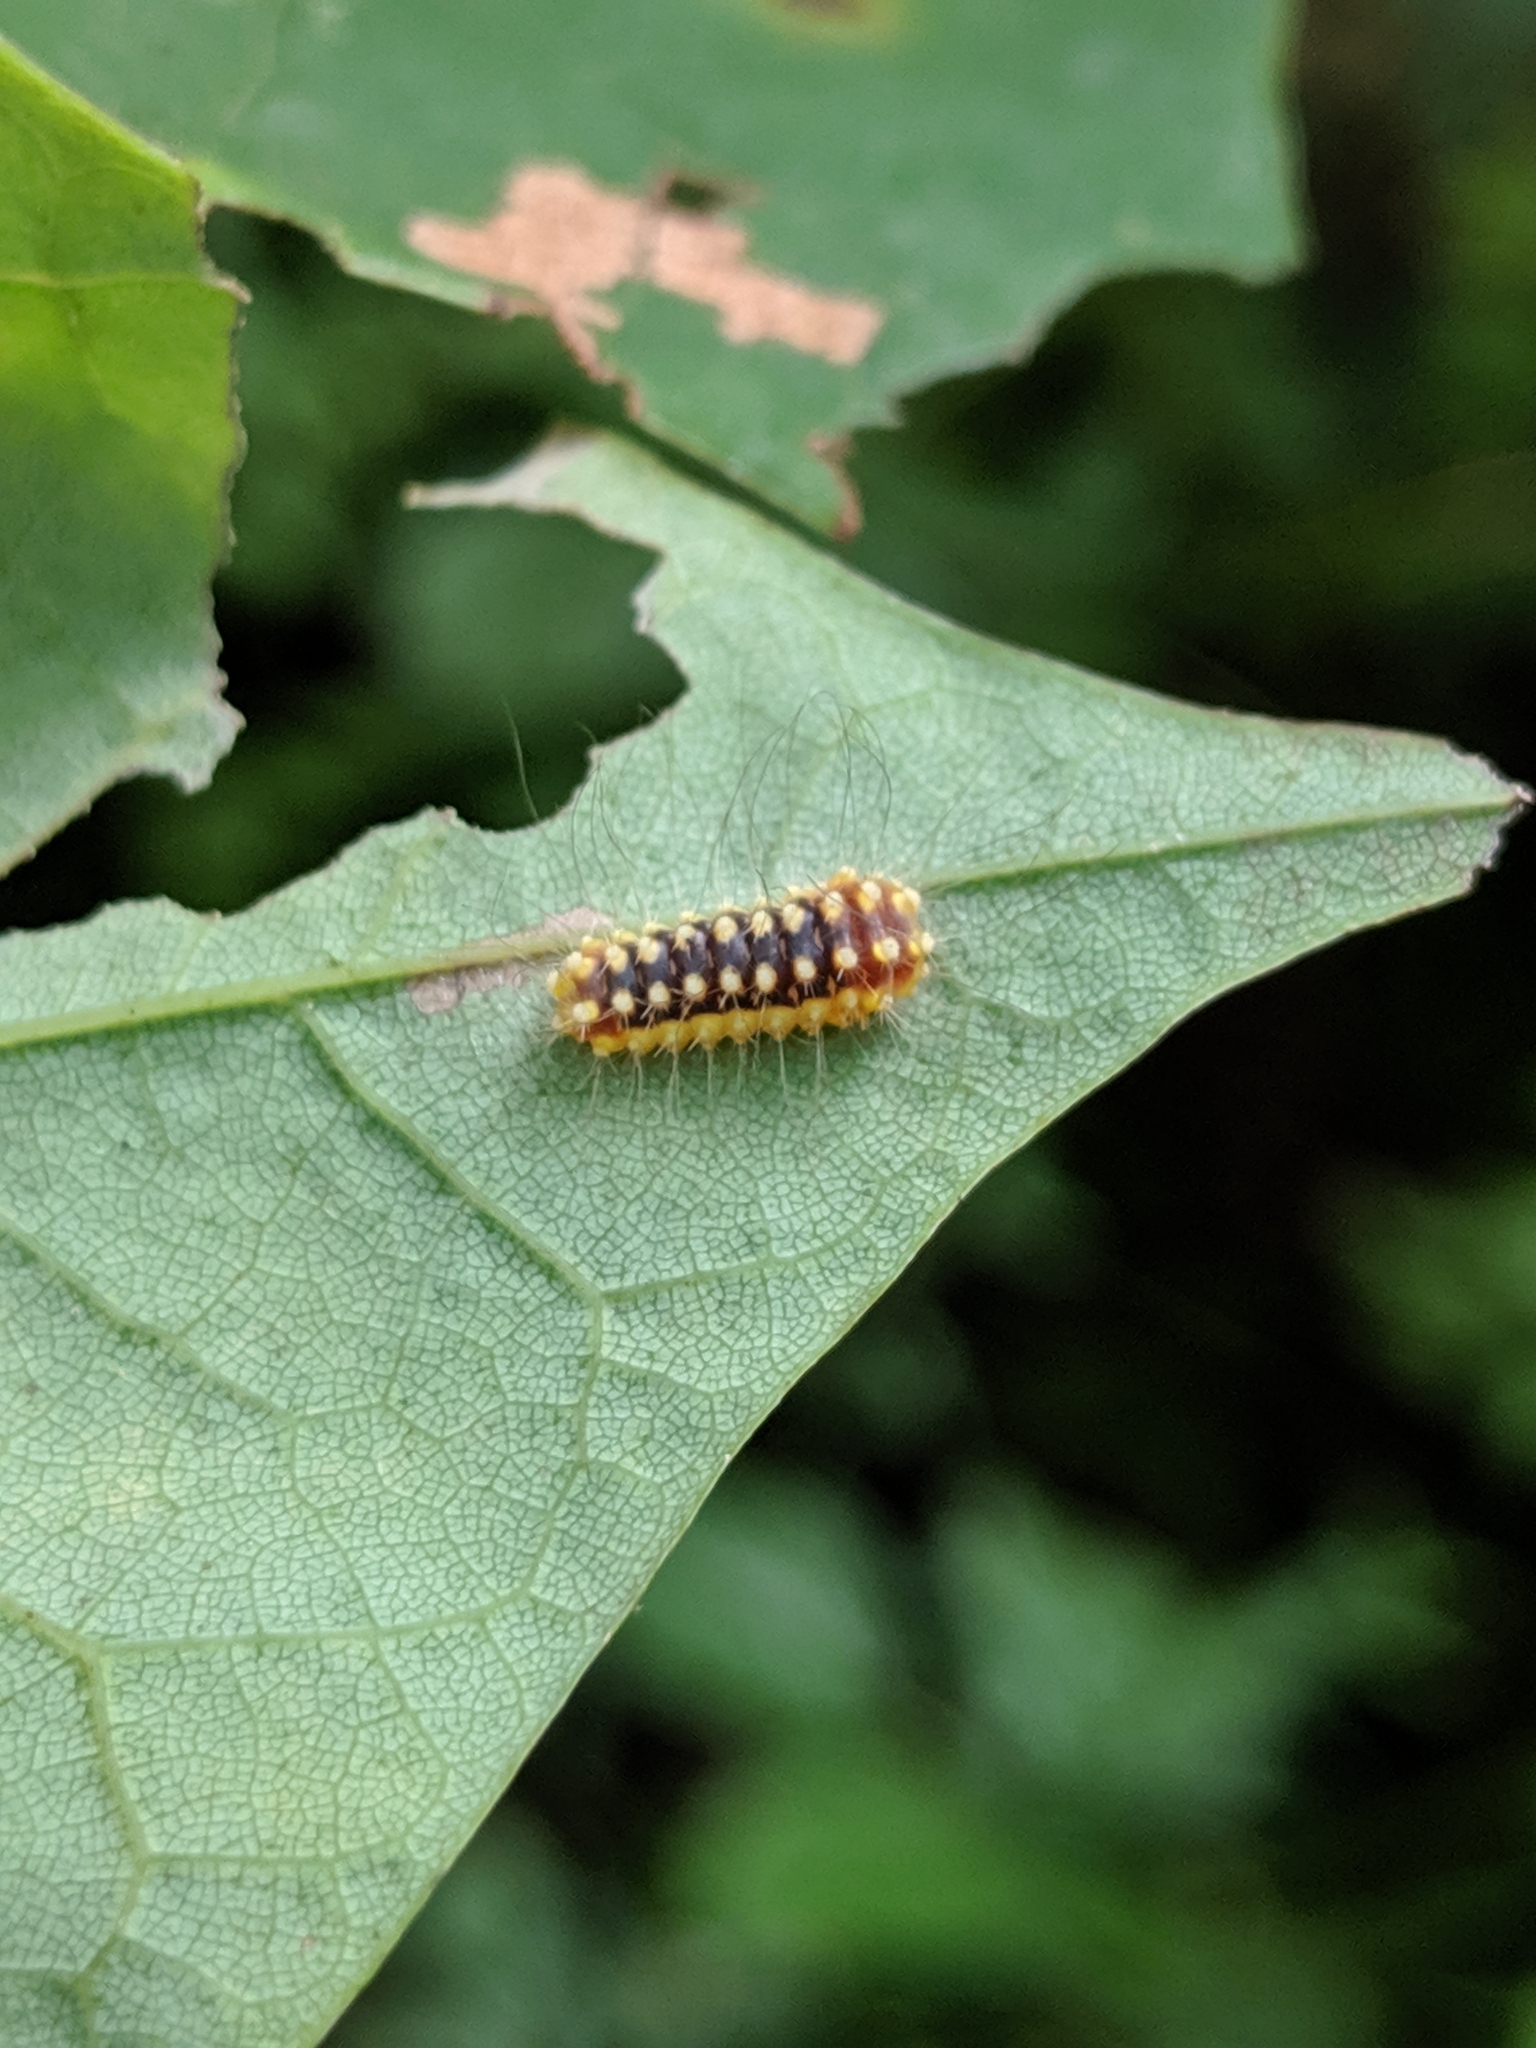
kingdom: Animalia
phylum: Arthropoda
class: Insecta
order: Lepidoptera
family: Megalopygidae
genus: Norape
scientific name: Norape cretata
